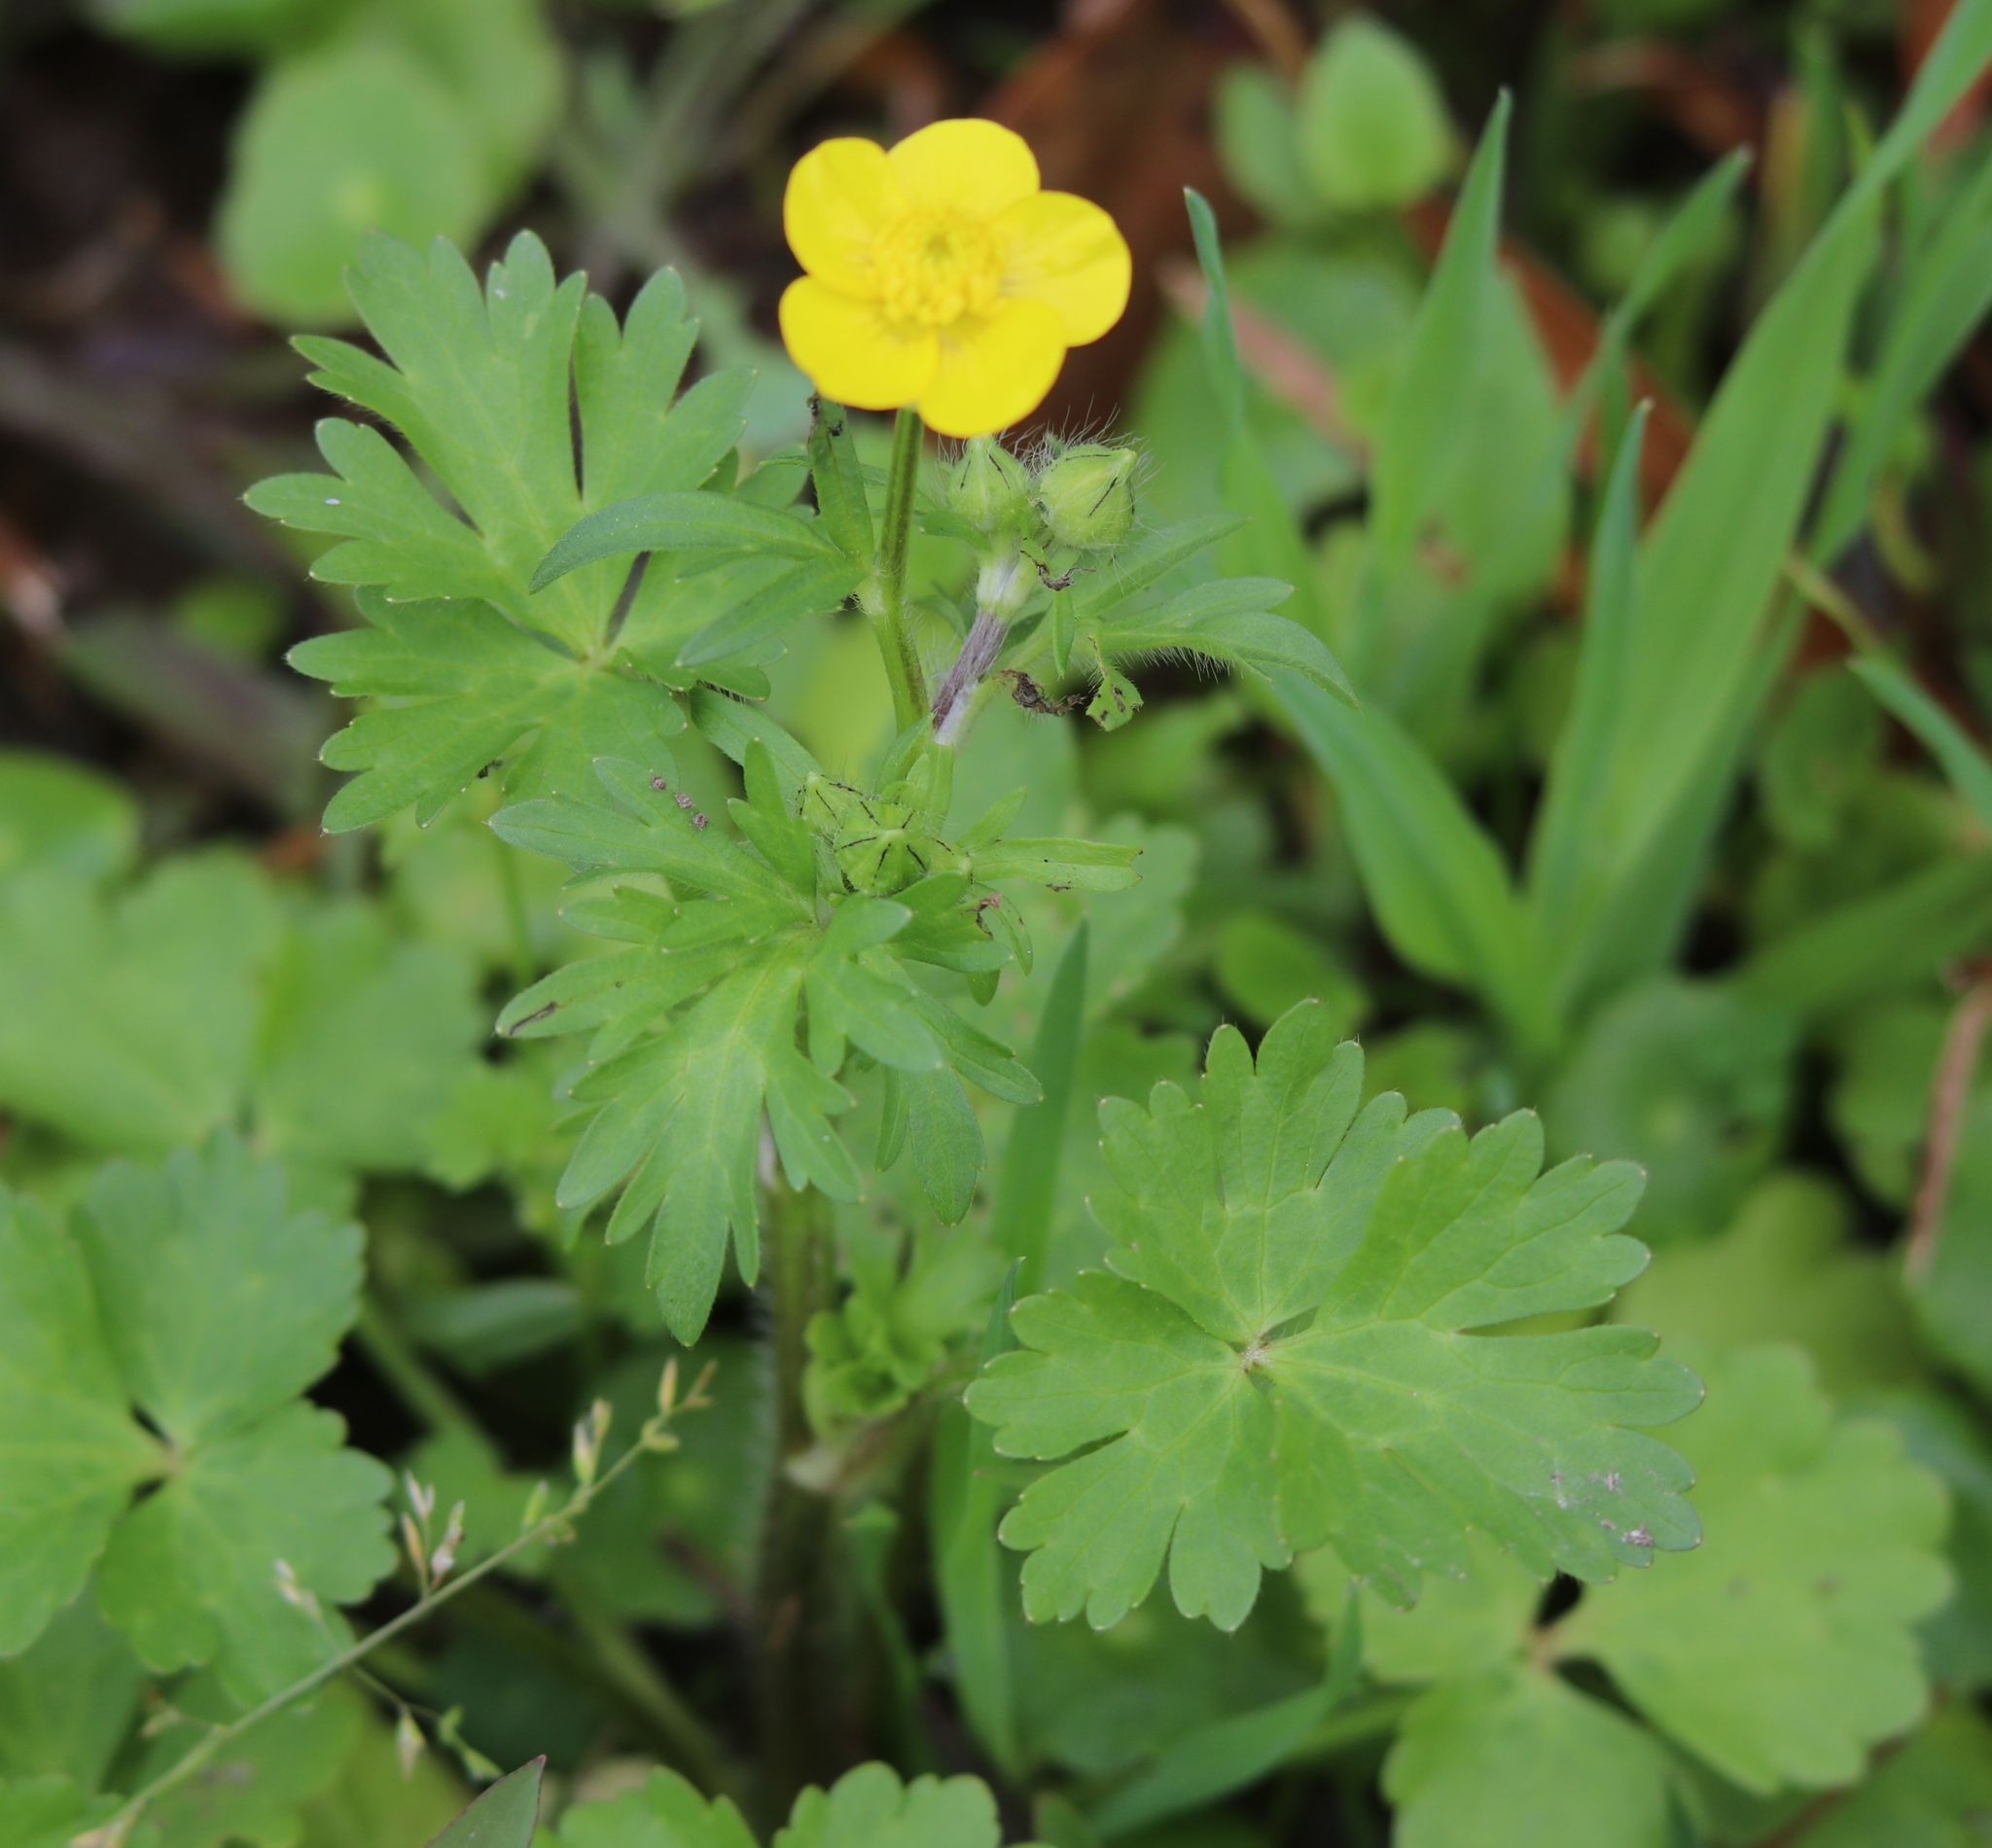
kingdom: Plantae
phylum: Tracheophyta
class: Magnoliopsida
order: Ranunculales
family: Ranunculaceae
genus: Ranunculus
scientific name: Ranunculus sardous
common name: Hairy buttercup
